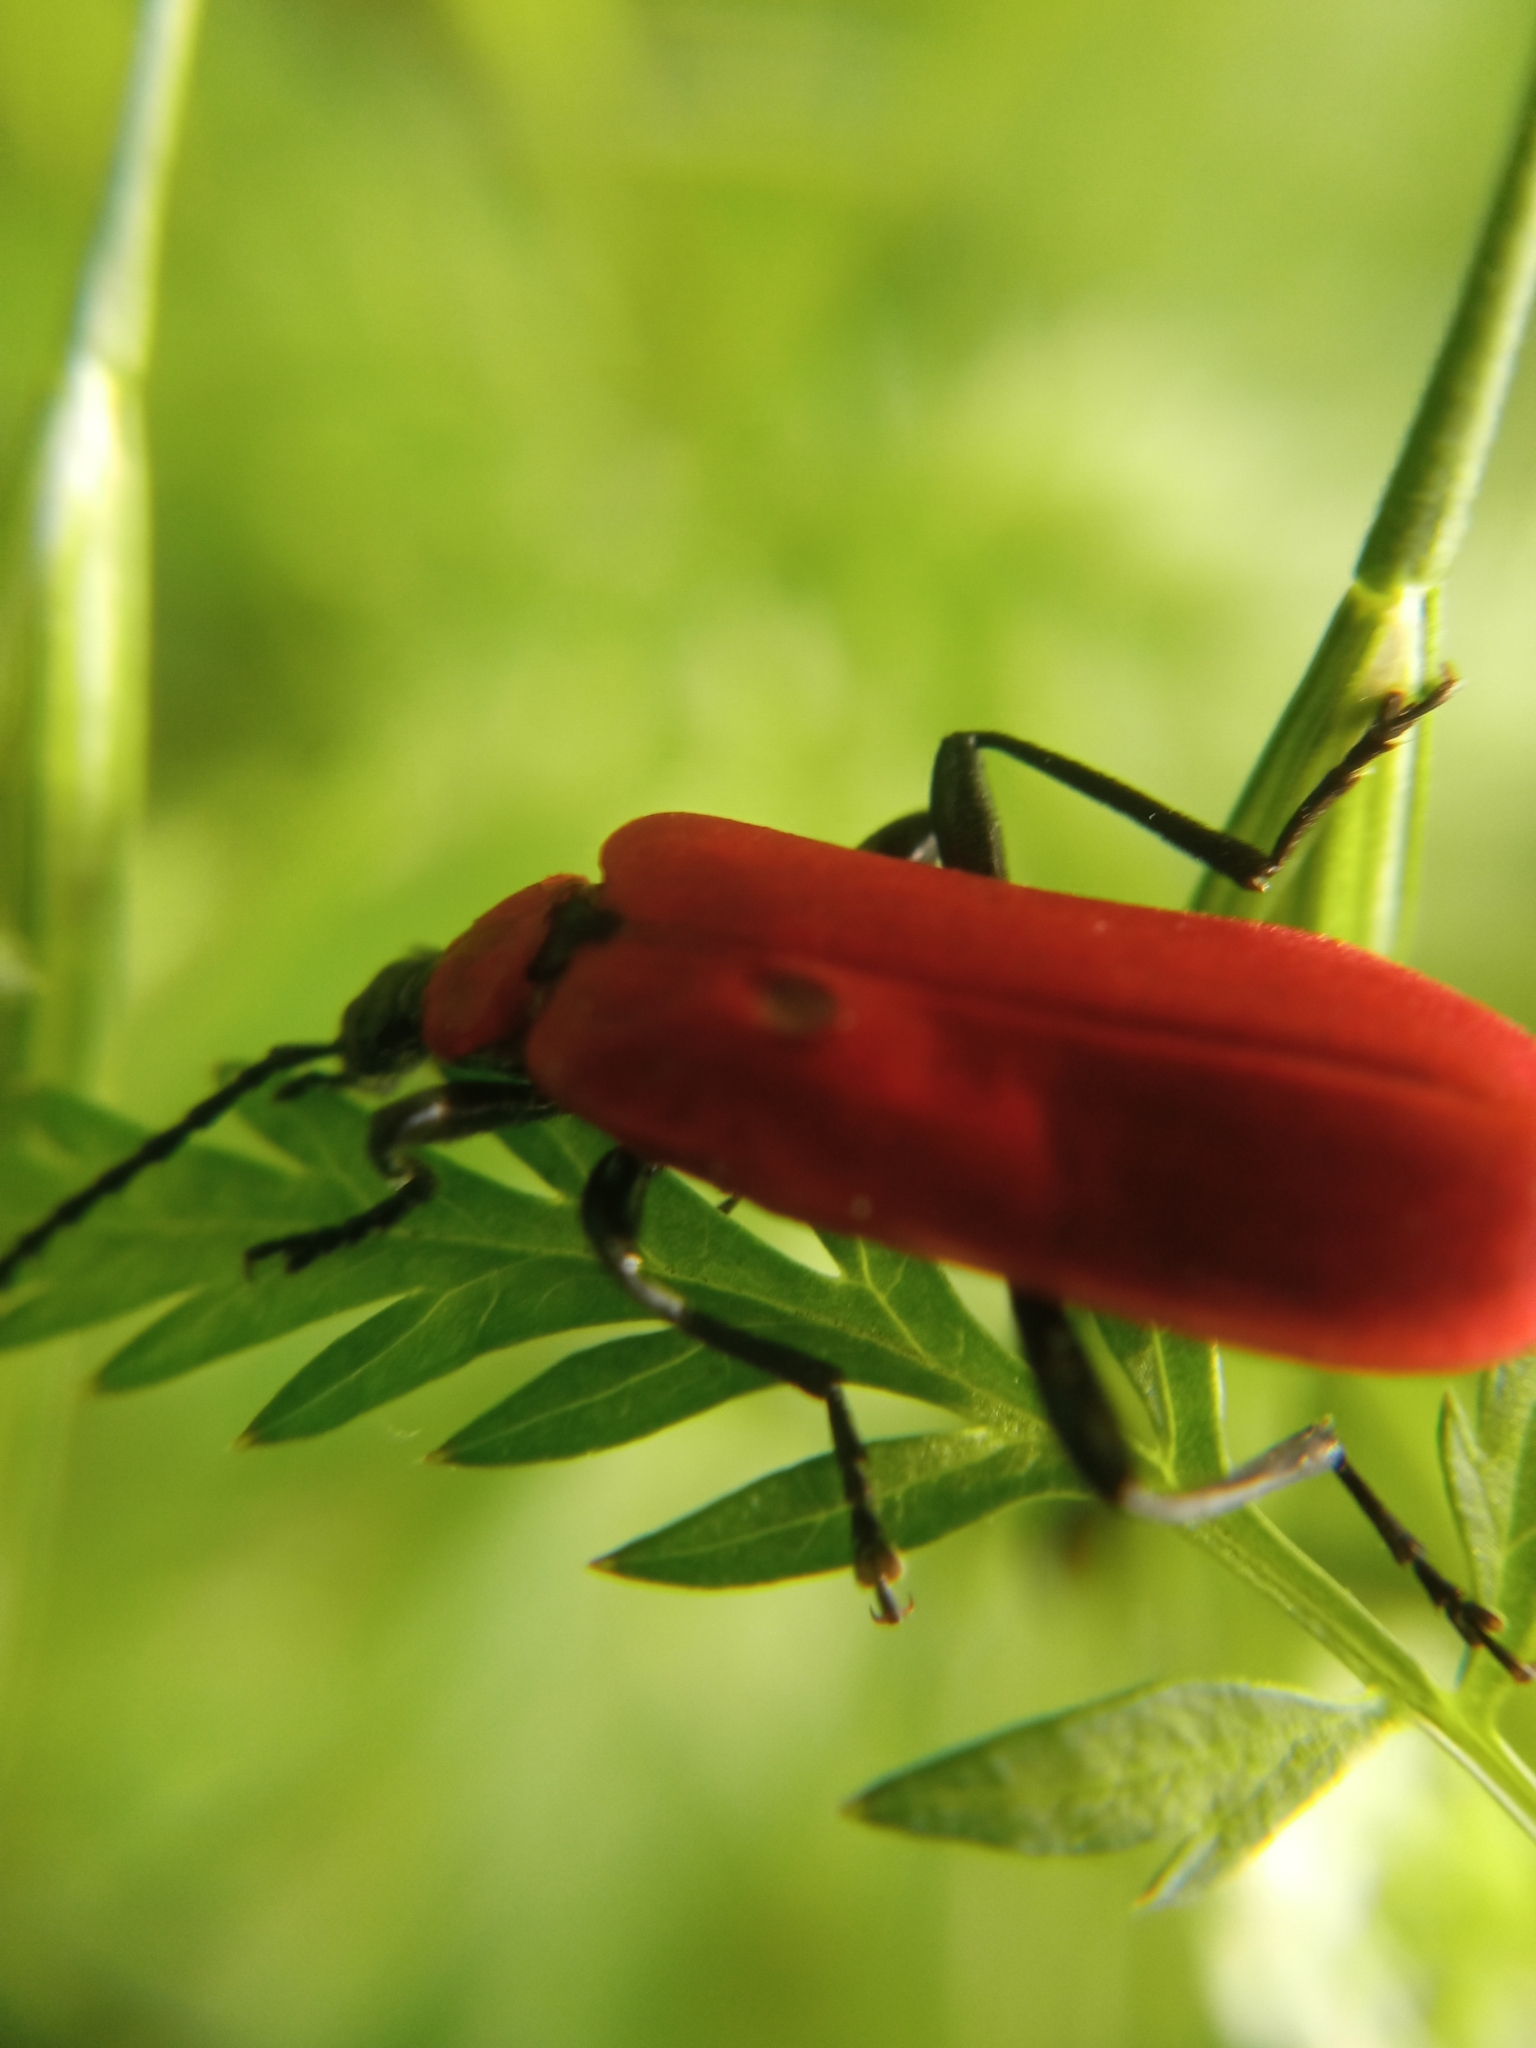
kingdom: Animalia
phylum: Arthropoda
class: Insecta
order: Coleoptera
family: Pyrochroidae
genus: Pyrochroa
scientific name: Pyrochroa coccinea
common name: Black-headed cardinal beetle
